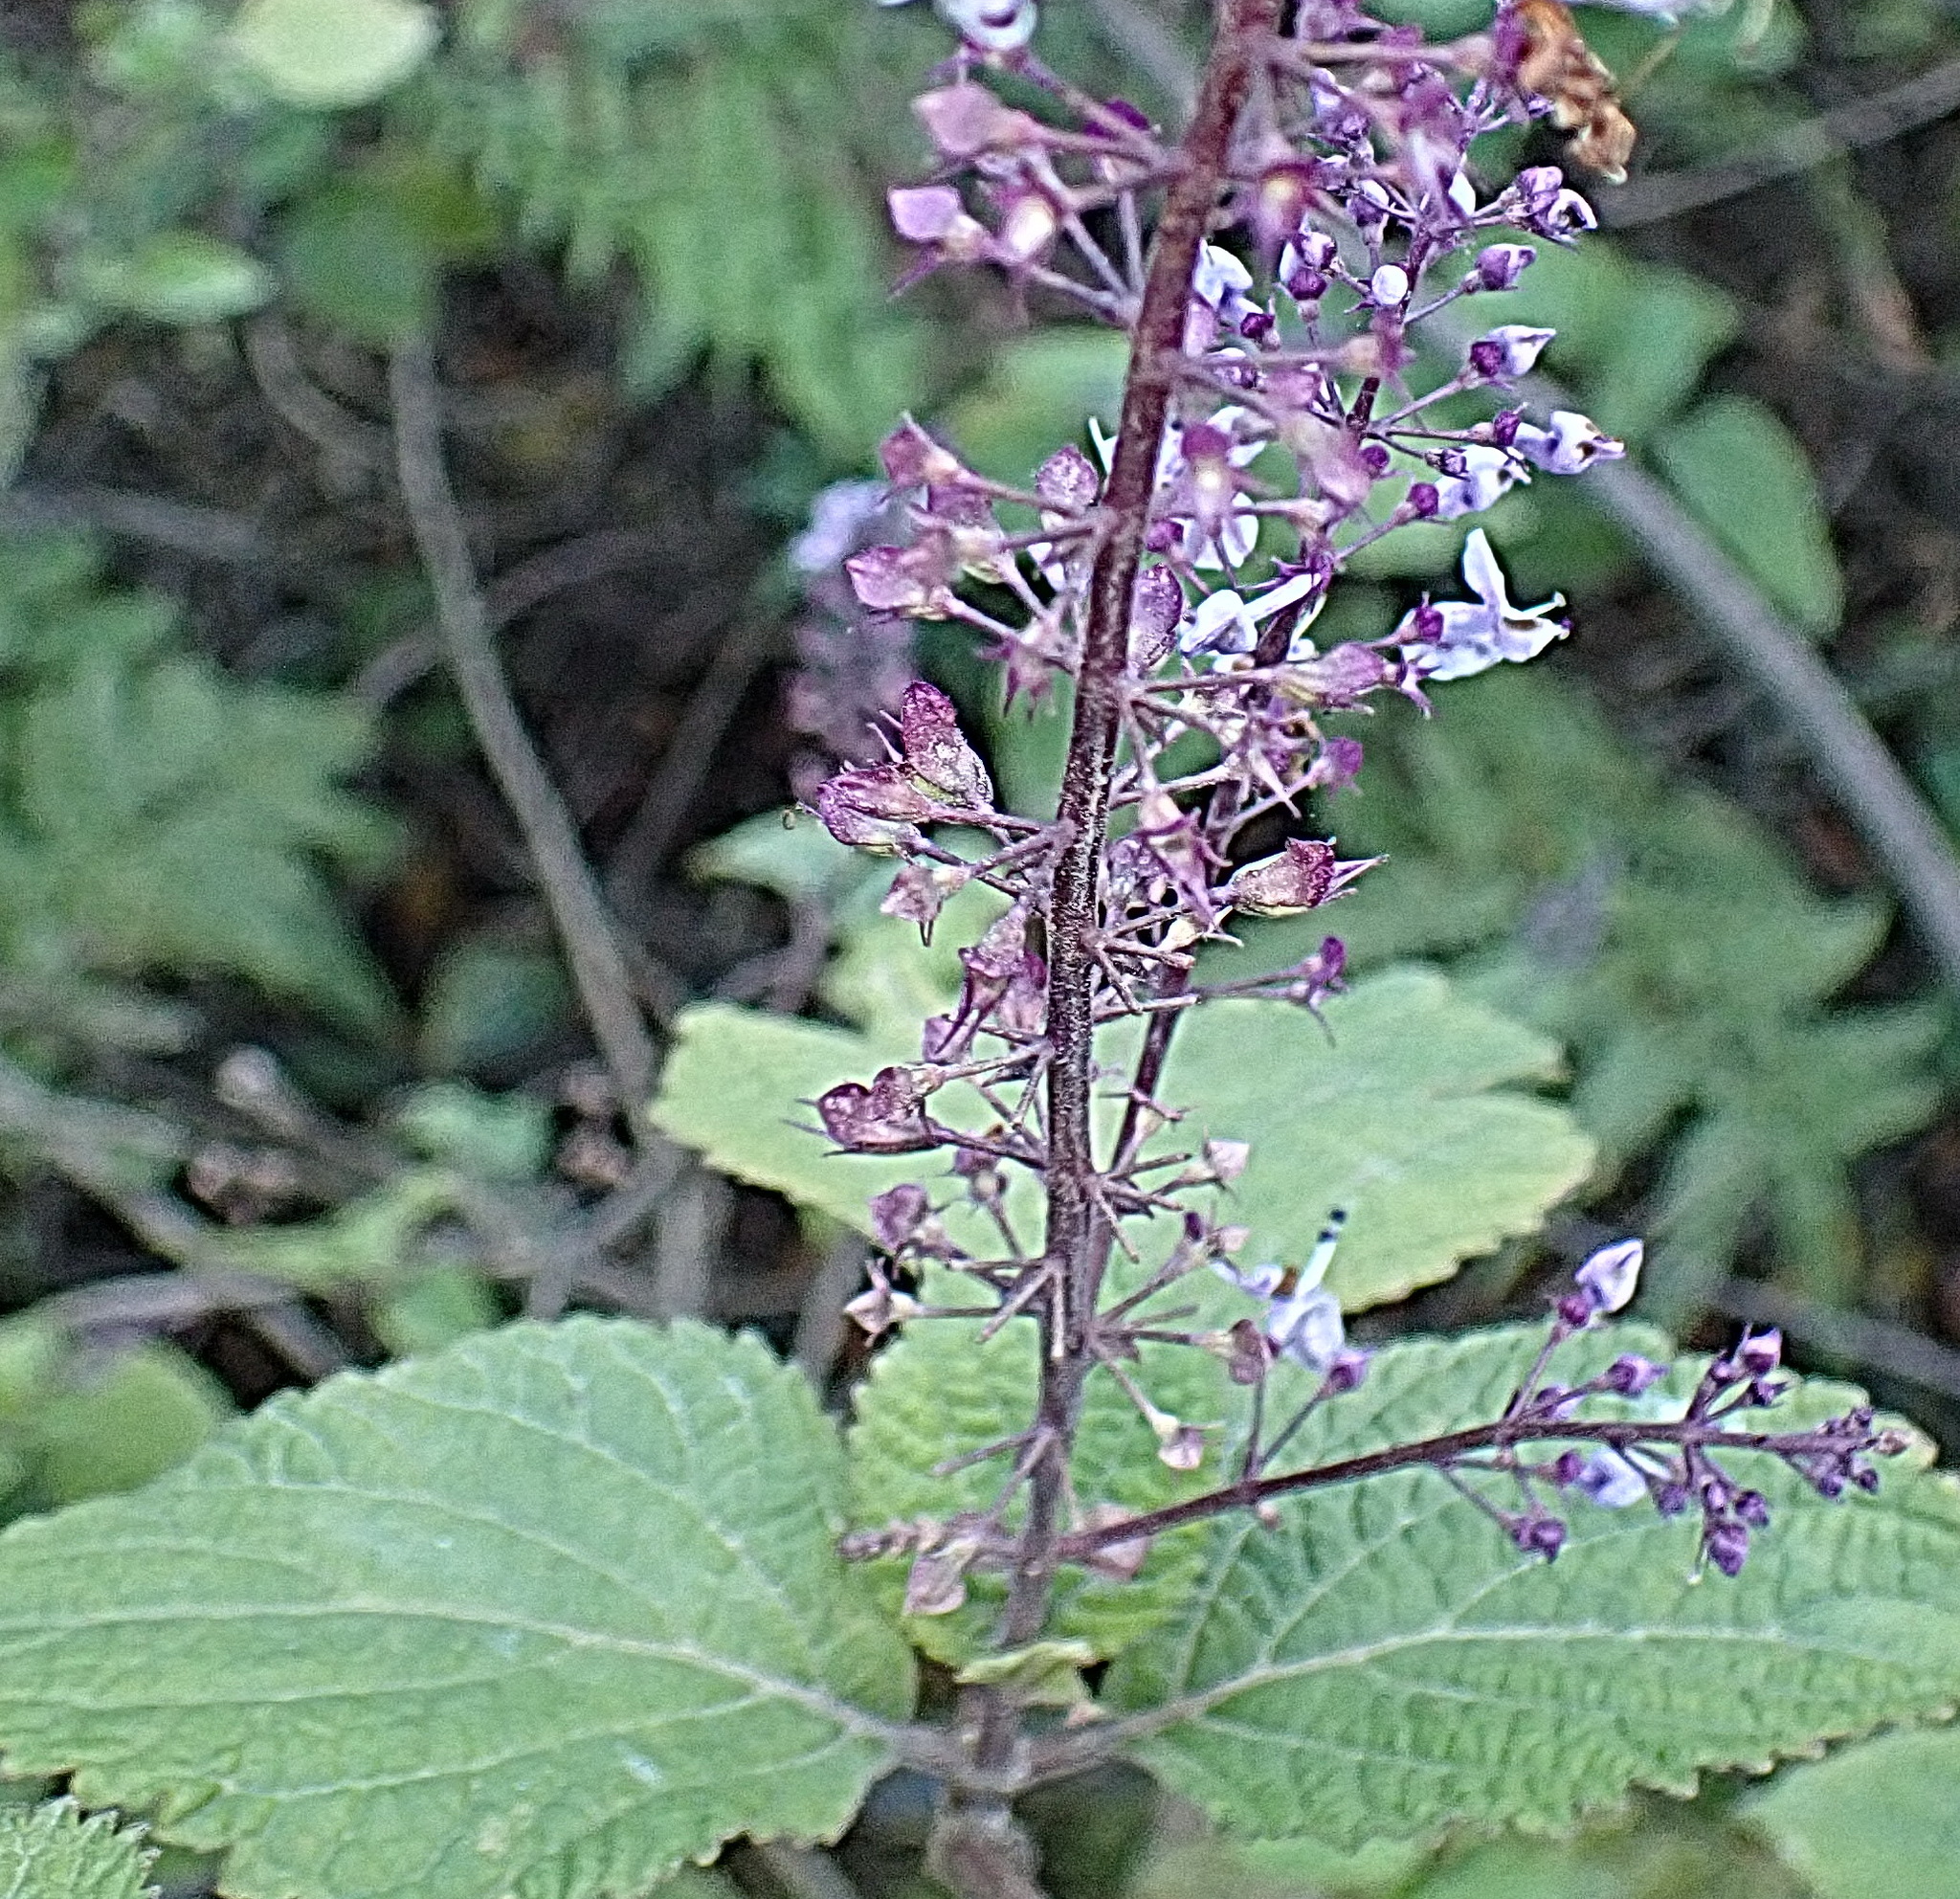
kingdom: Plantae
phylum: Tracheophyta
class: Magnoliopsida
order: Lamiales
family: Lamiaceae
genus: Plectranthus
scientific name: Plectranthus fruticosus
